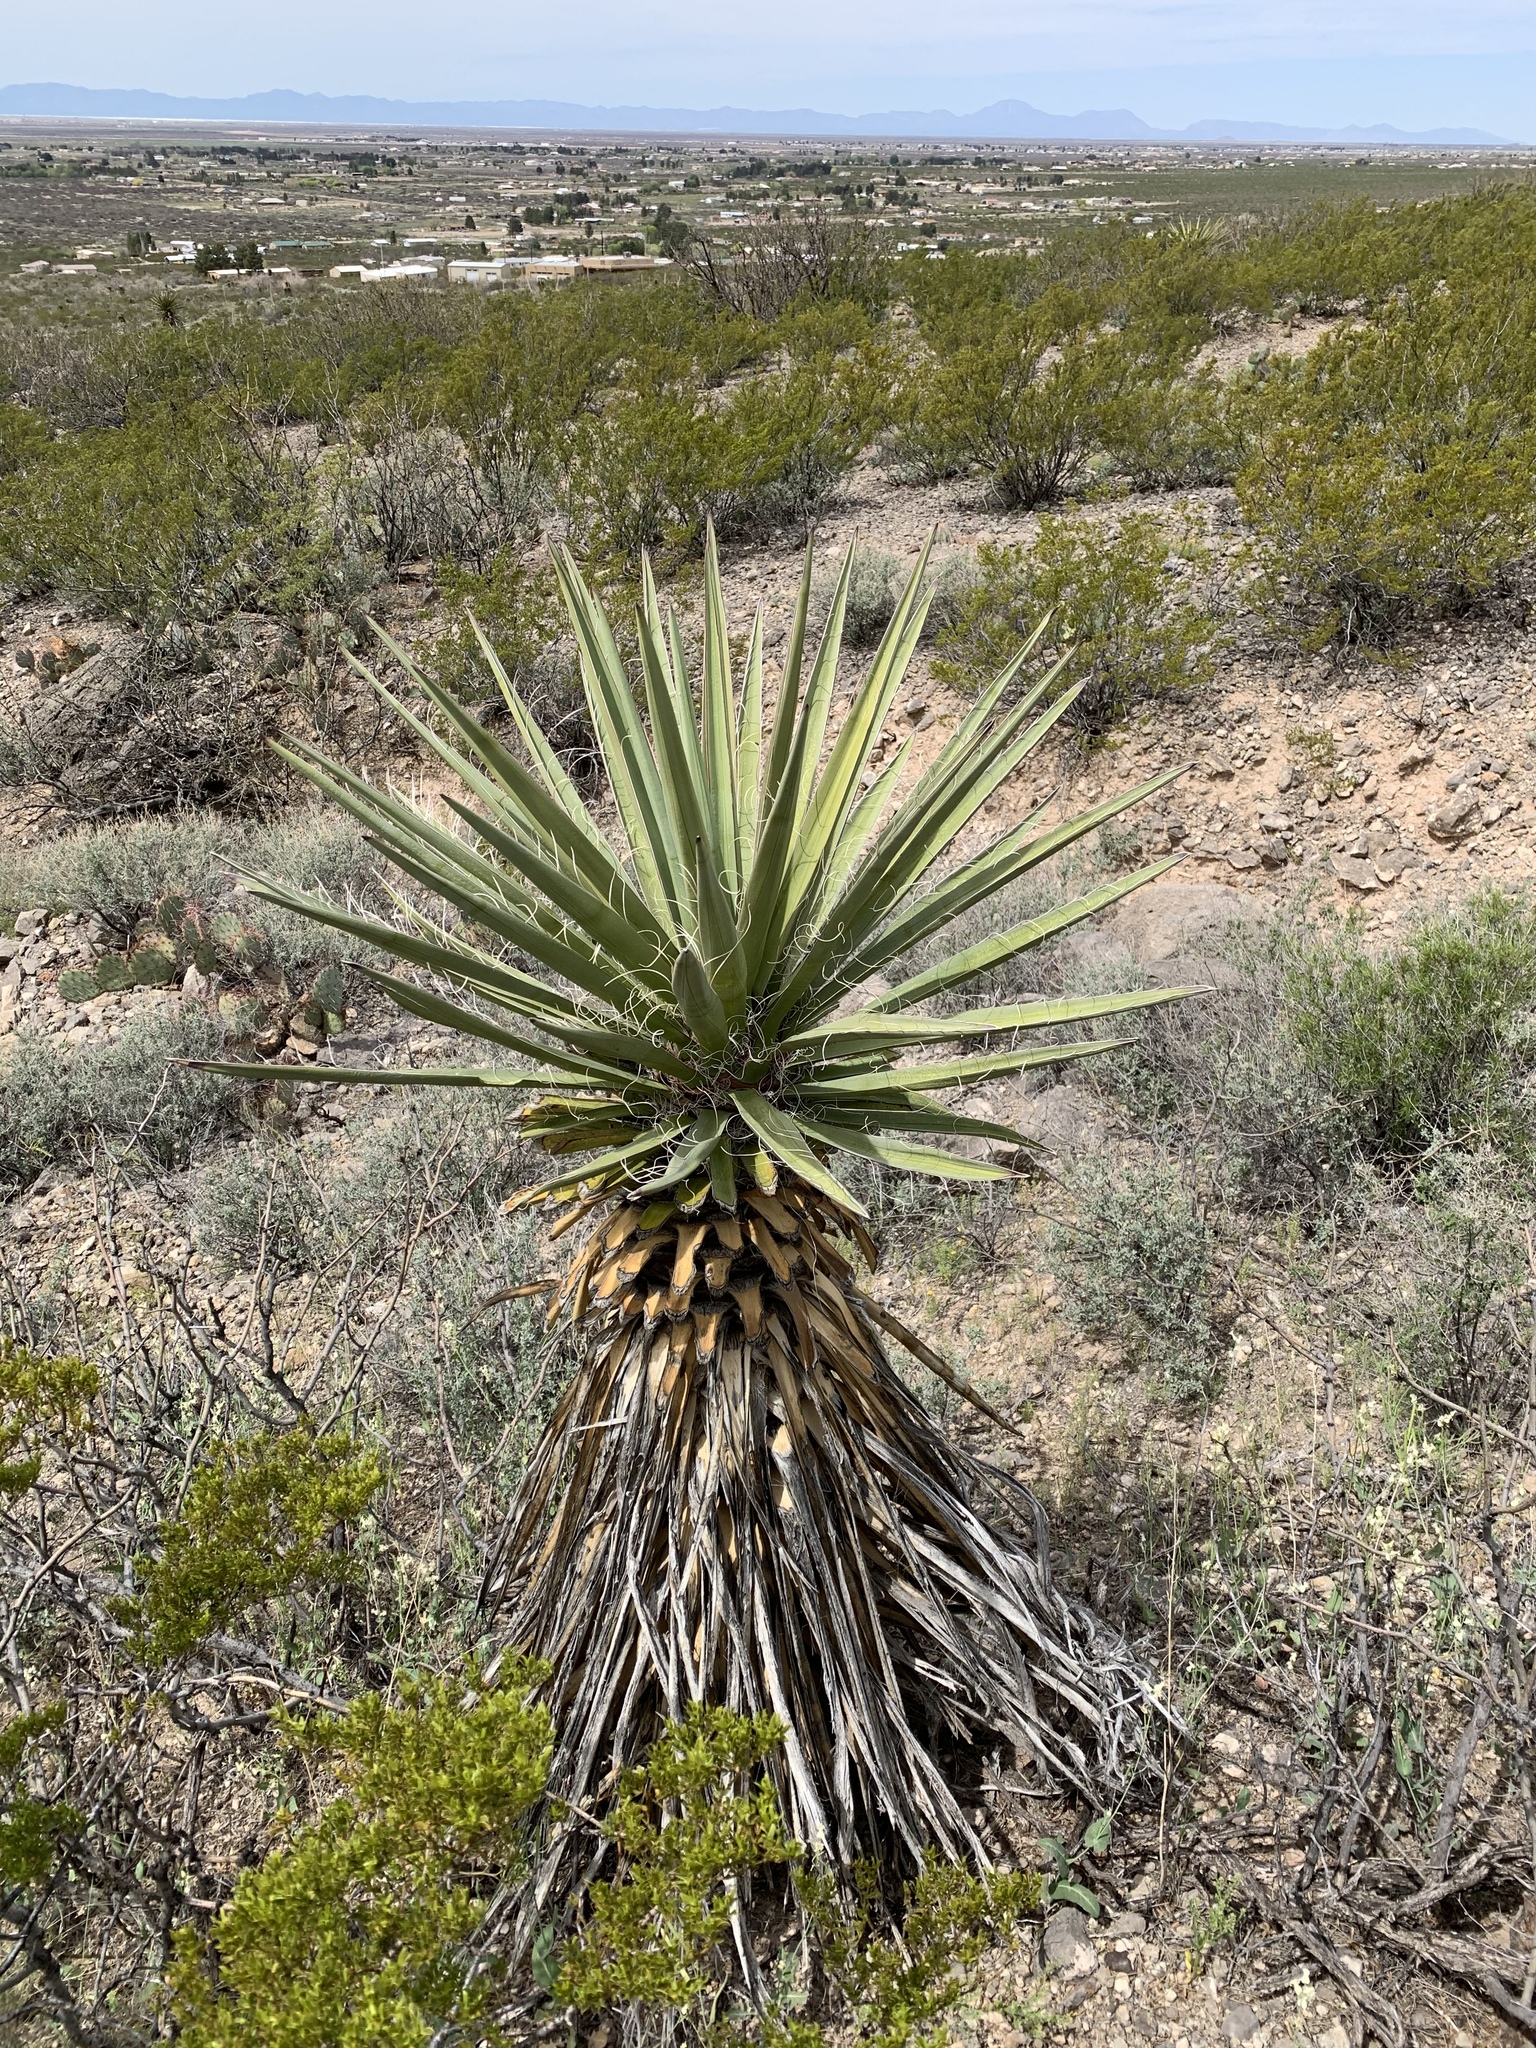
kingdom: Plantae
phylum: Tracheophyta
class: Liliopsida
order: Asparagales
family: Asparagaceae
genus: Yucca
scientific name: Yucca treculiana
